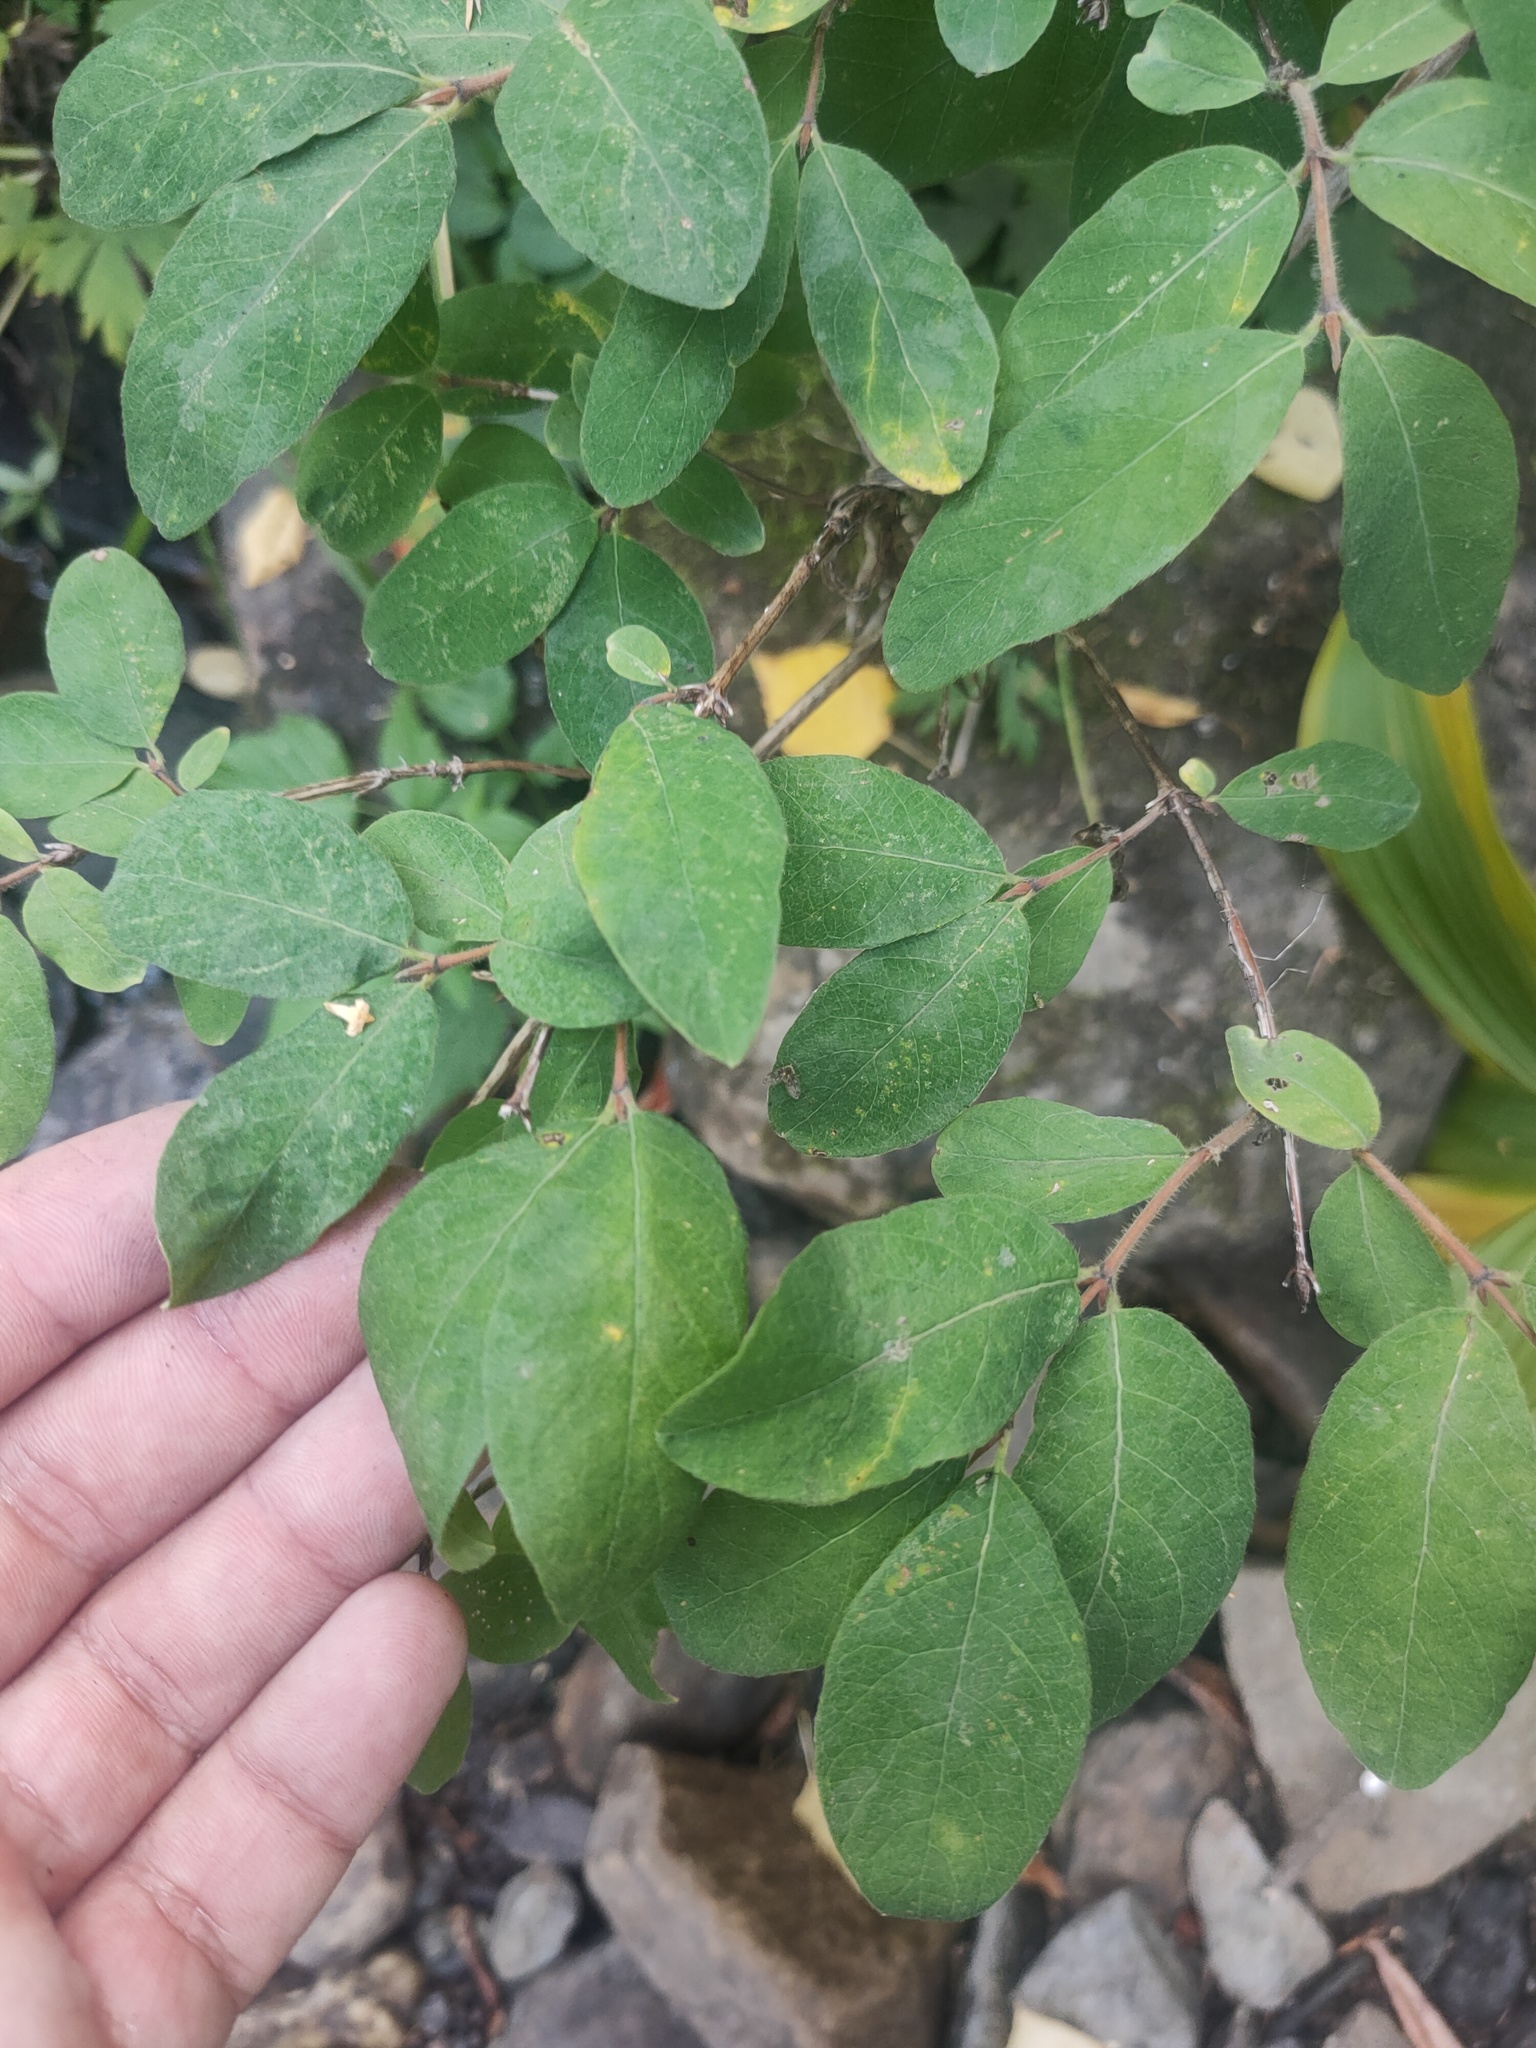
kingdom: Plantae
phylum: Tracheophyta
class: Magnoliopsida
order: Dipsacales
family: Caprifoliaceae
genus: Lonicera
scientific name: Lonicera caerulea
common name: Blue honeysuckle
